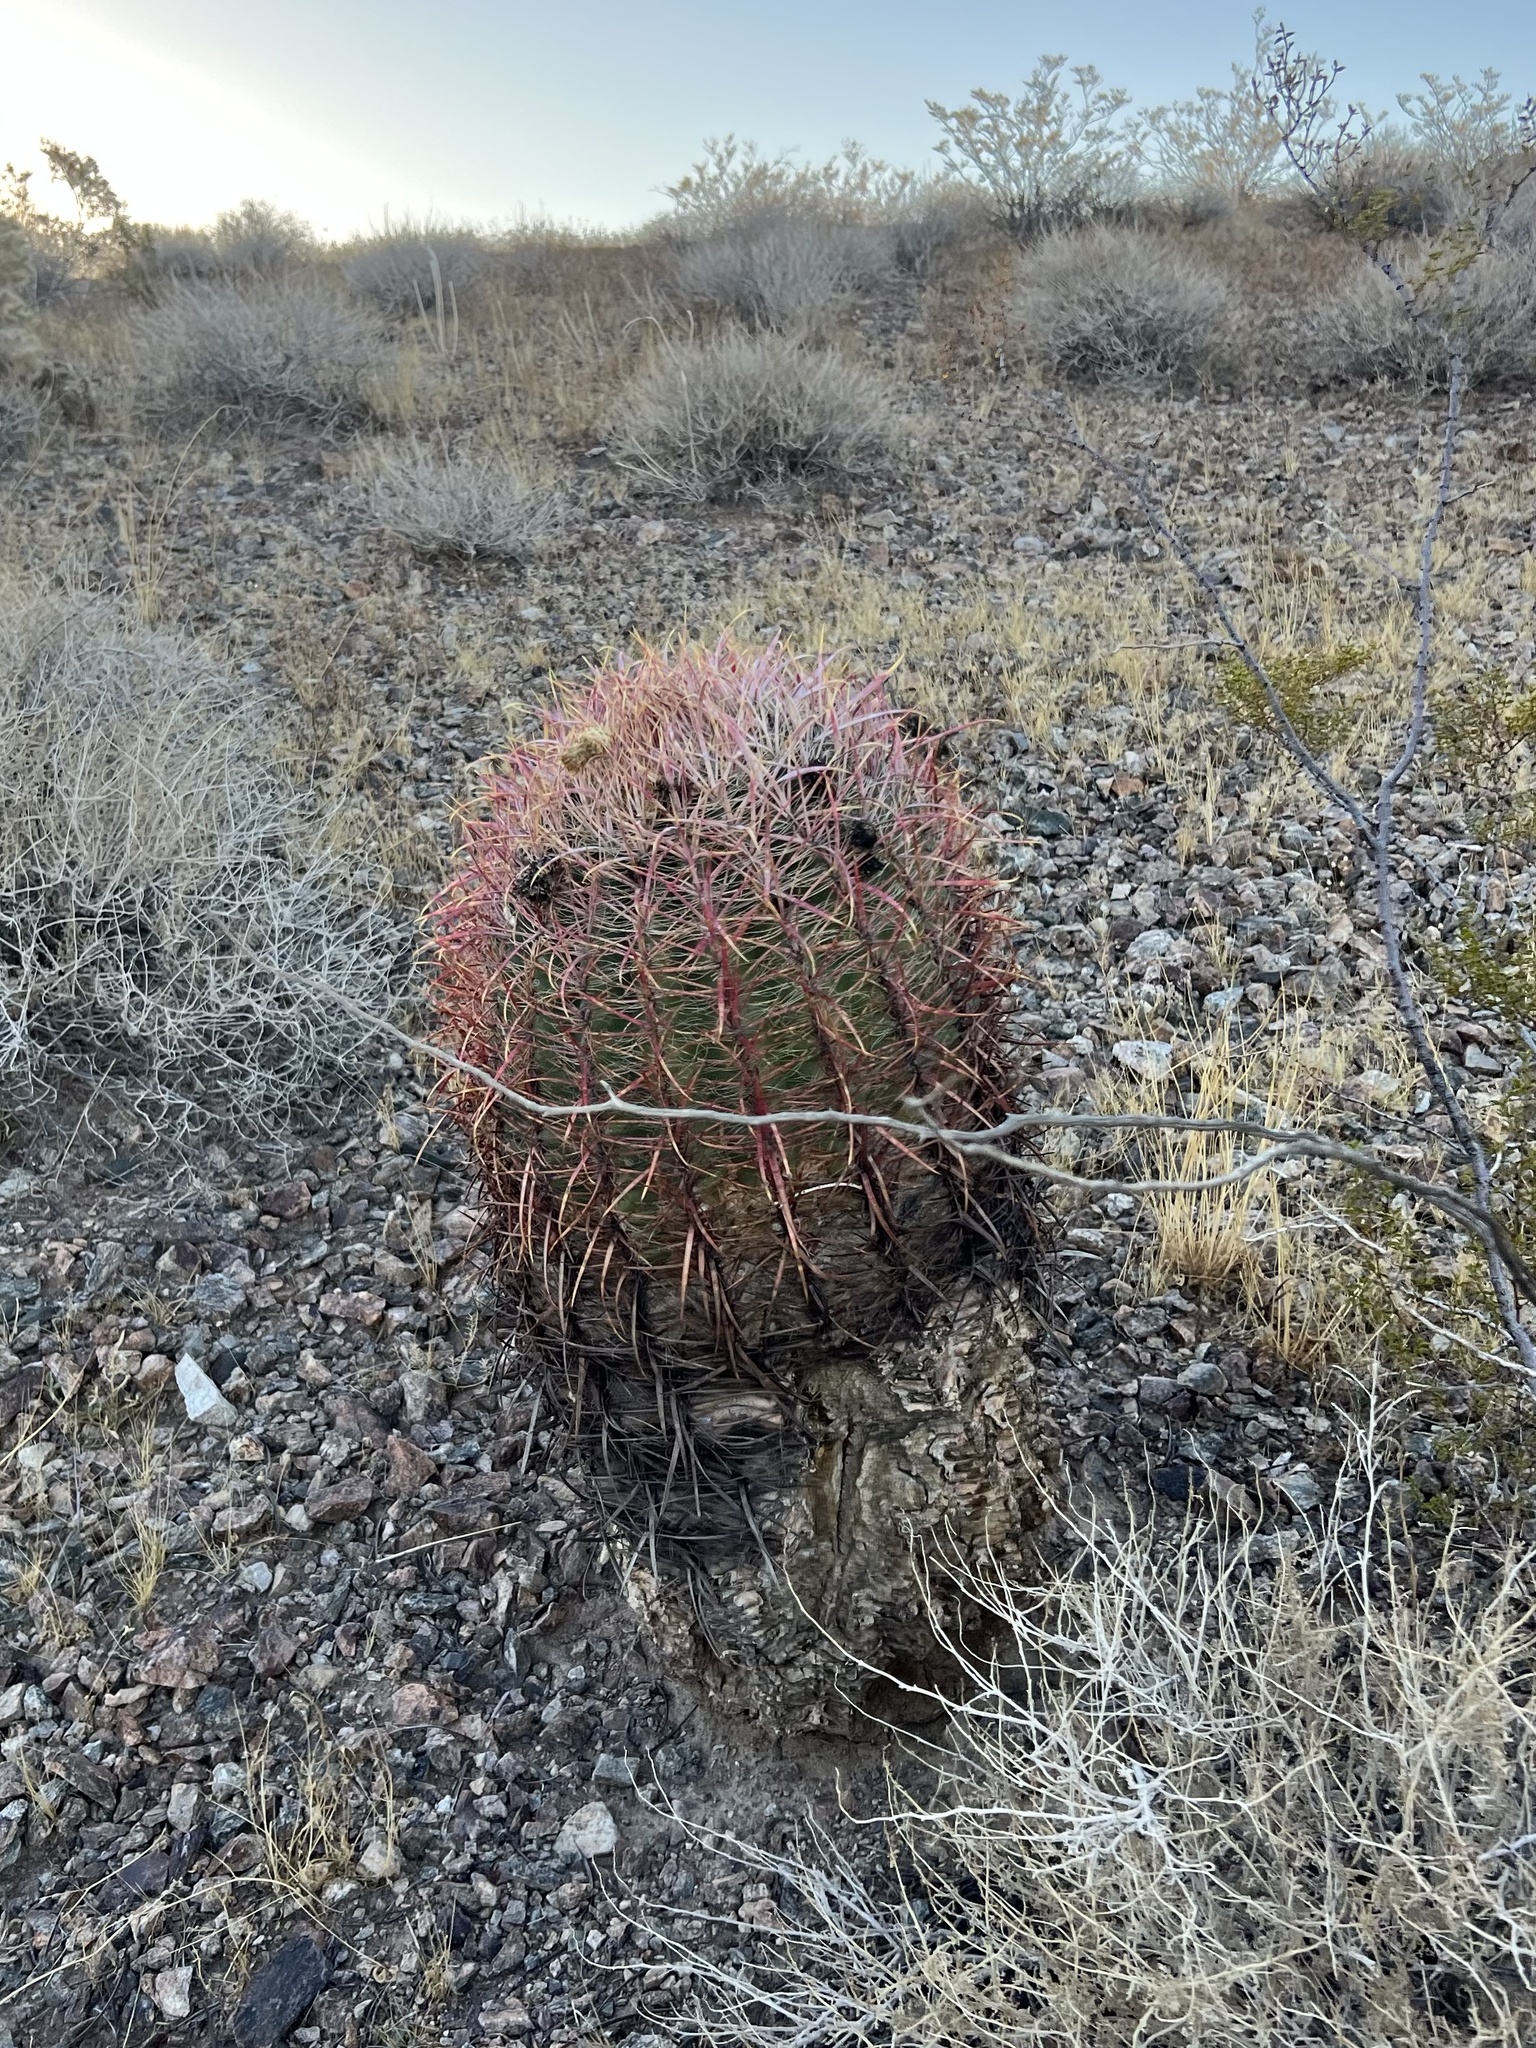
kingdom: Plantae
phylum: Tracheophyta
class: Magnoliopsida
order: Caryophyllales
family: Cactaceae
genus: Ferocactus
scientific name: Ferocactus cylindraceus
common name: California barrel cactus
